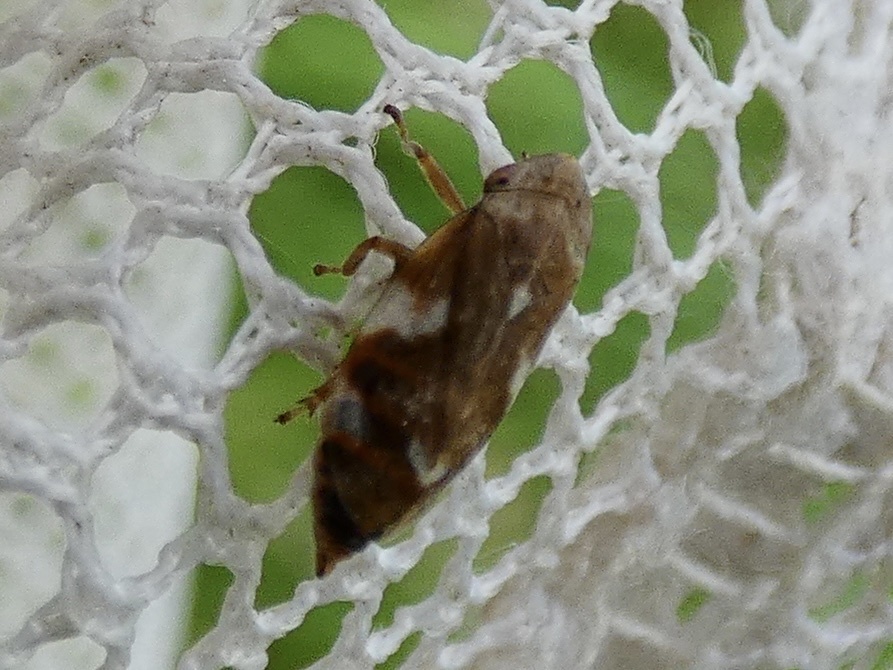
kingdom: Animalia
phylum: Arthropoda
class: Insecta
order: Hemiptera
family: Aphrophoridae
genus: Philaenus
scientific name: Philaenus spumarius
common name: Meadow spittlebug
